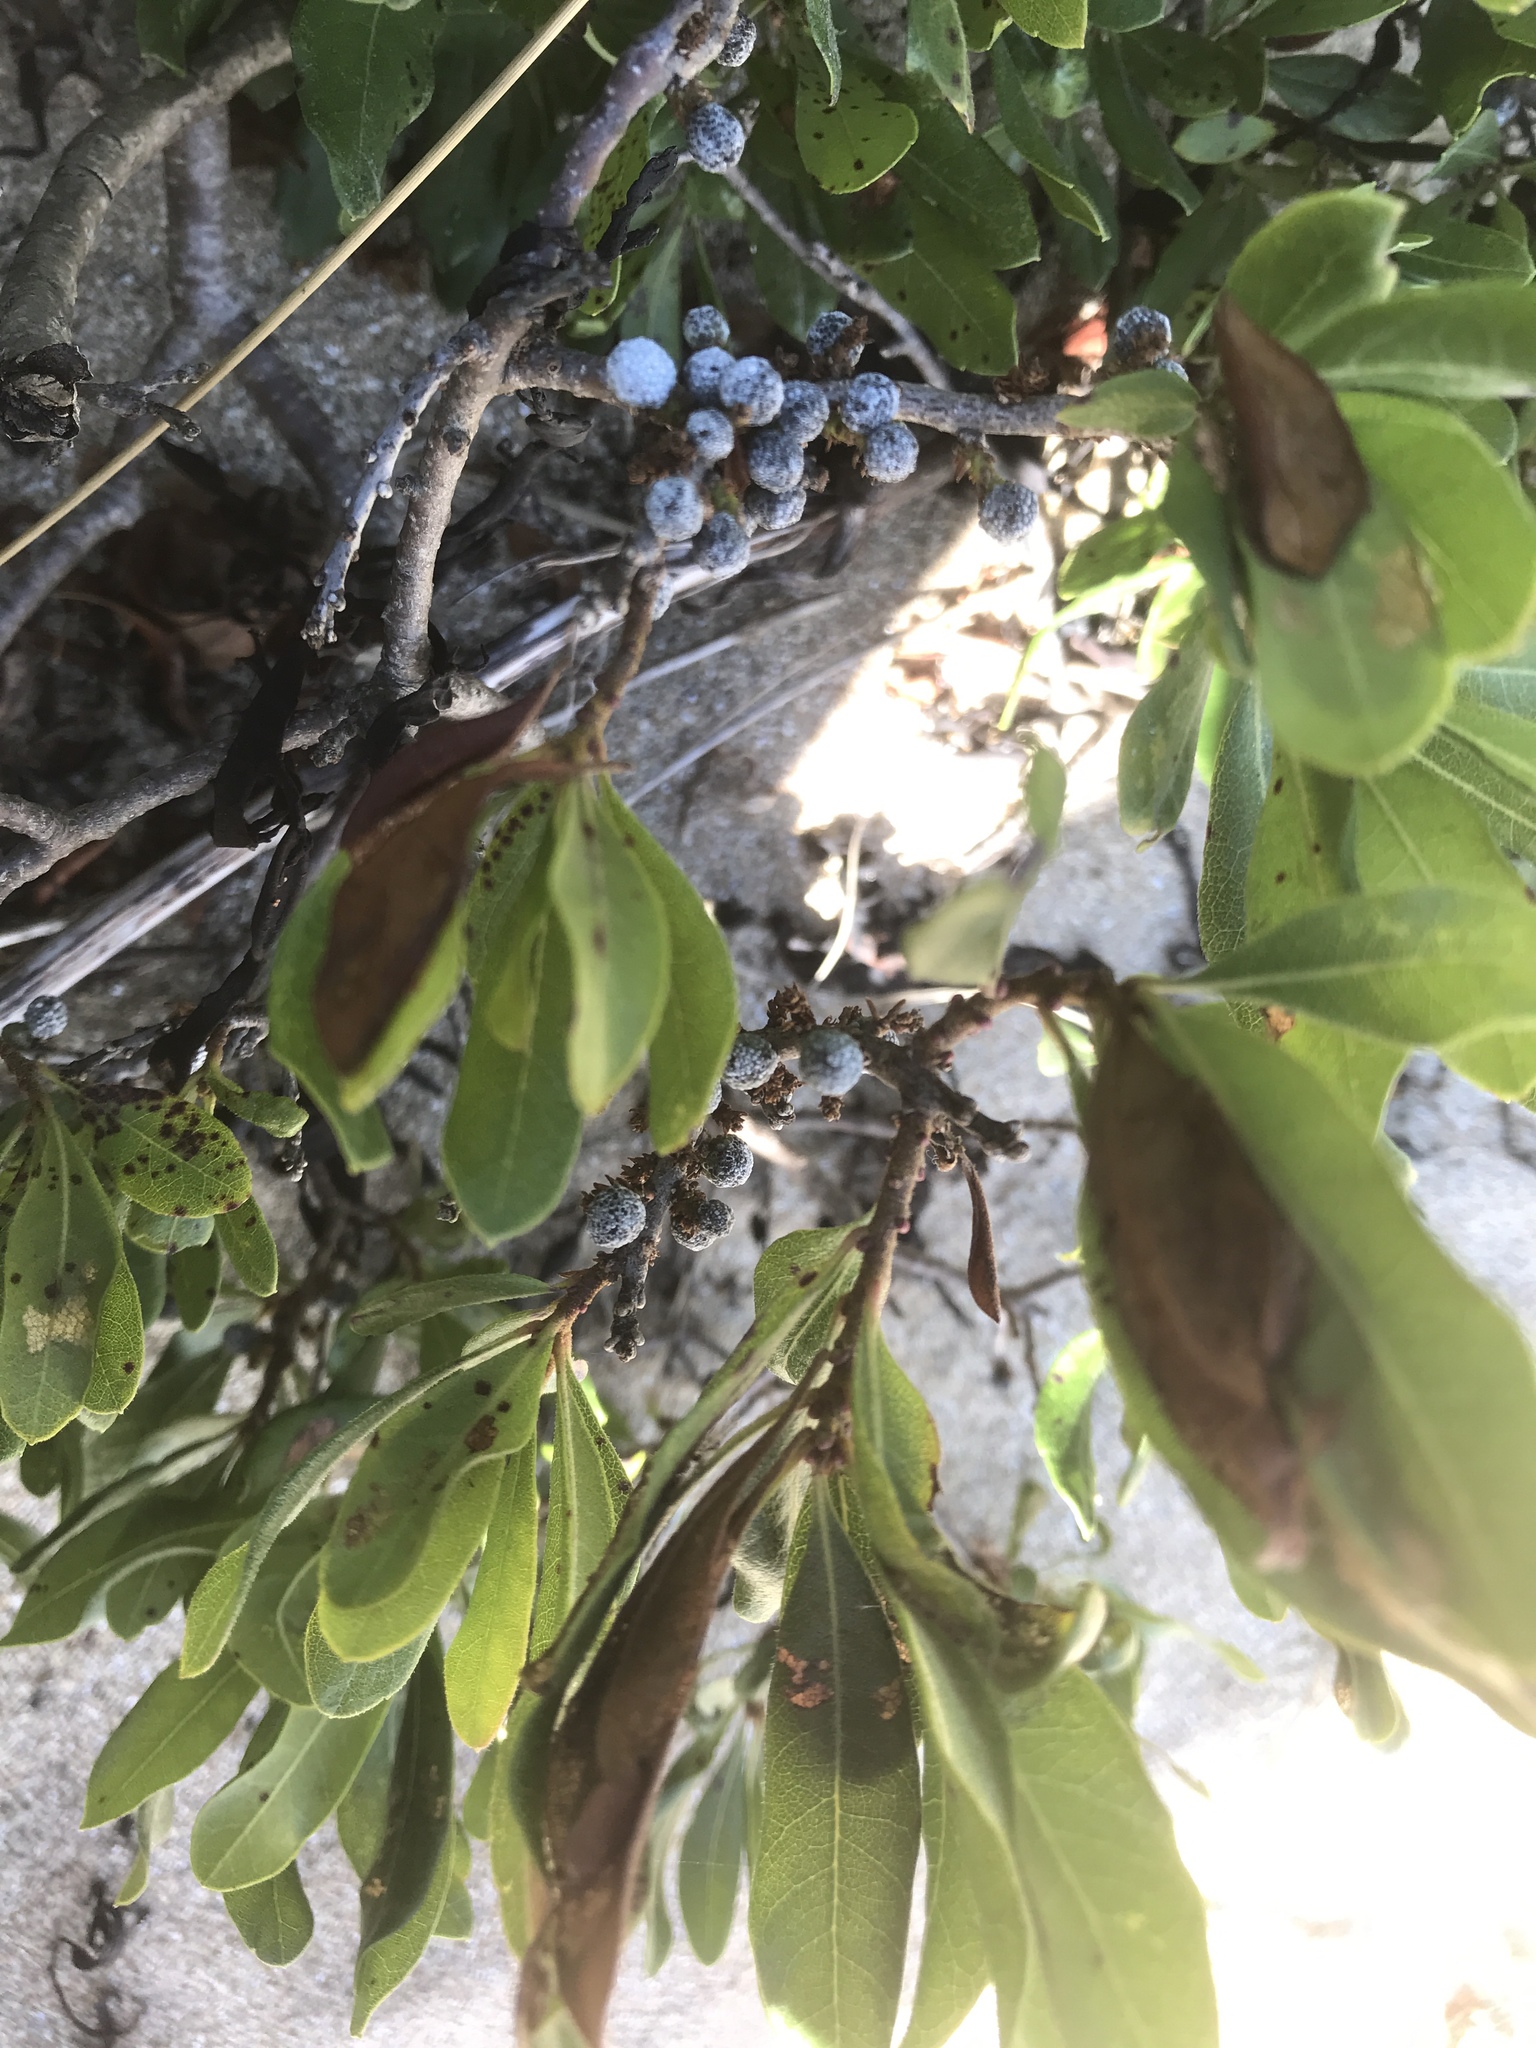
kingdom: Plantae
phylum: Tracheophyta
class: Magnoliopsida
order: Fagales
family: Myricaceae
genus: Morella
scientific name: Morella pensylvanica
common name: Northern bayberry
